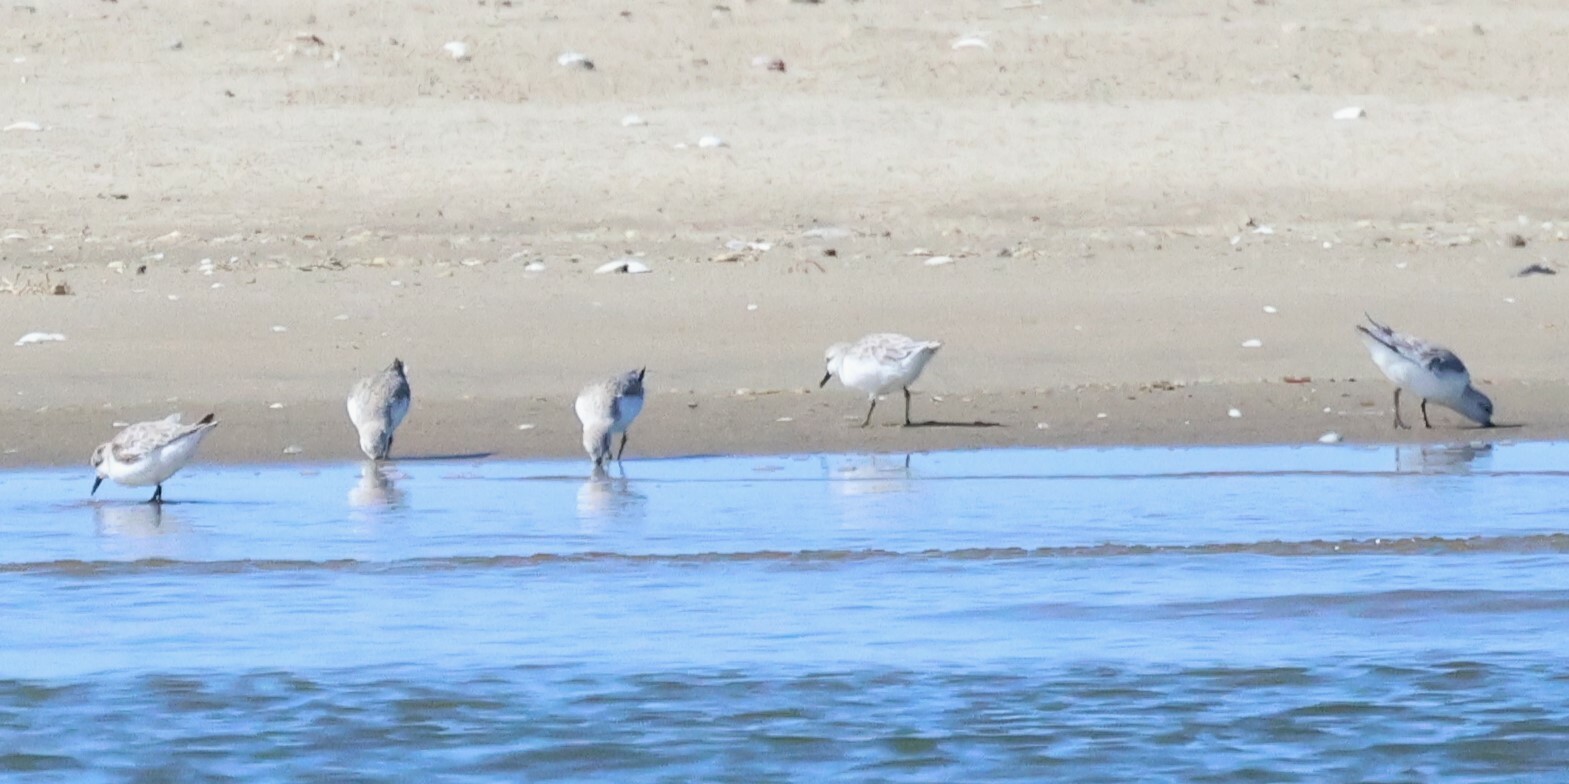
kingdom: Animalia
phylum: Chordata
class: Aves
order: Charadriiformes
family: Scolopacidae
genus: Calidris
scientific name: Calidris alba
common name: Sanderling
